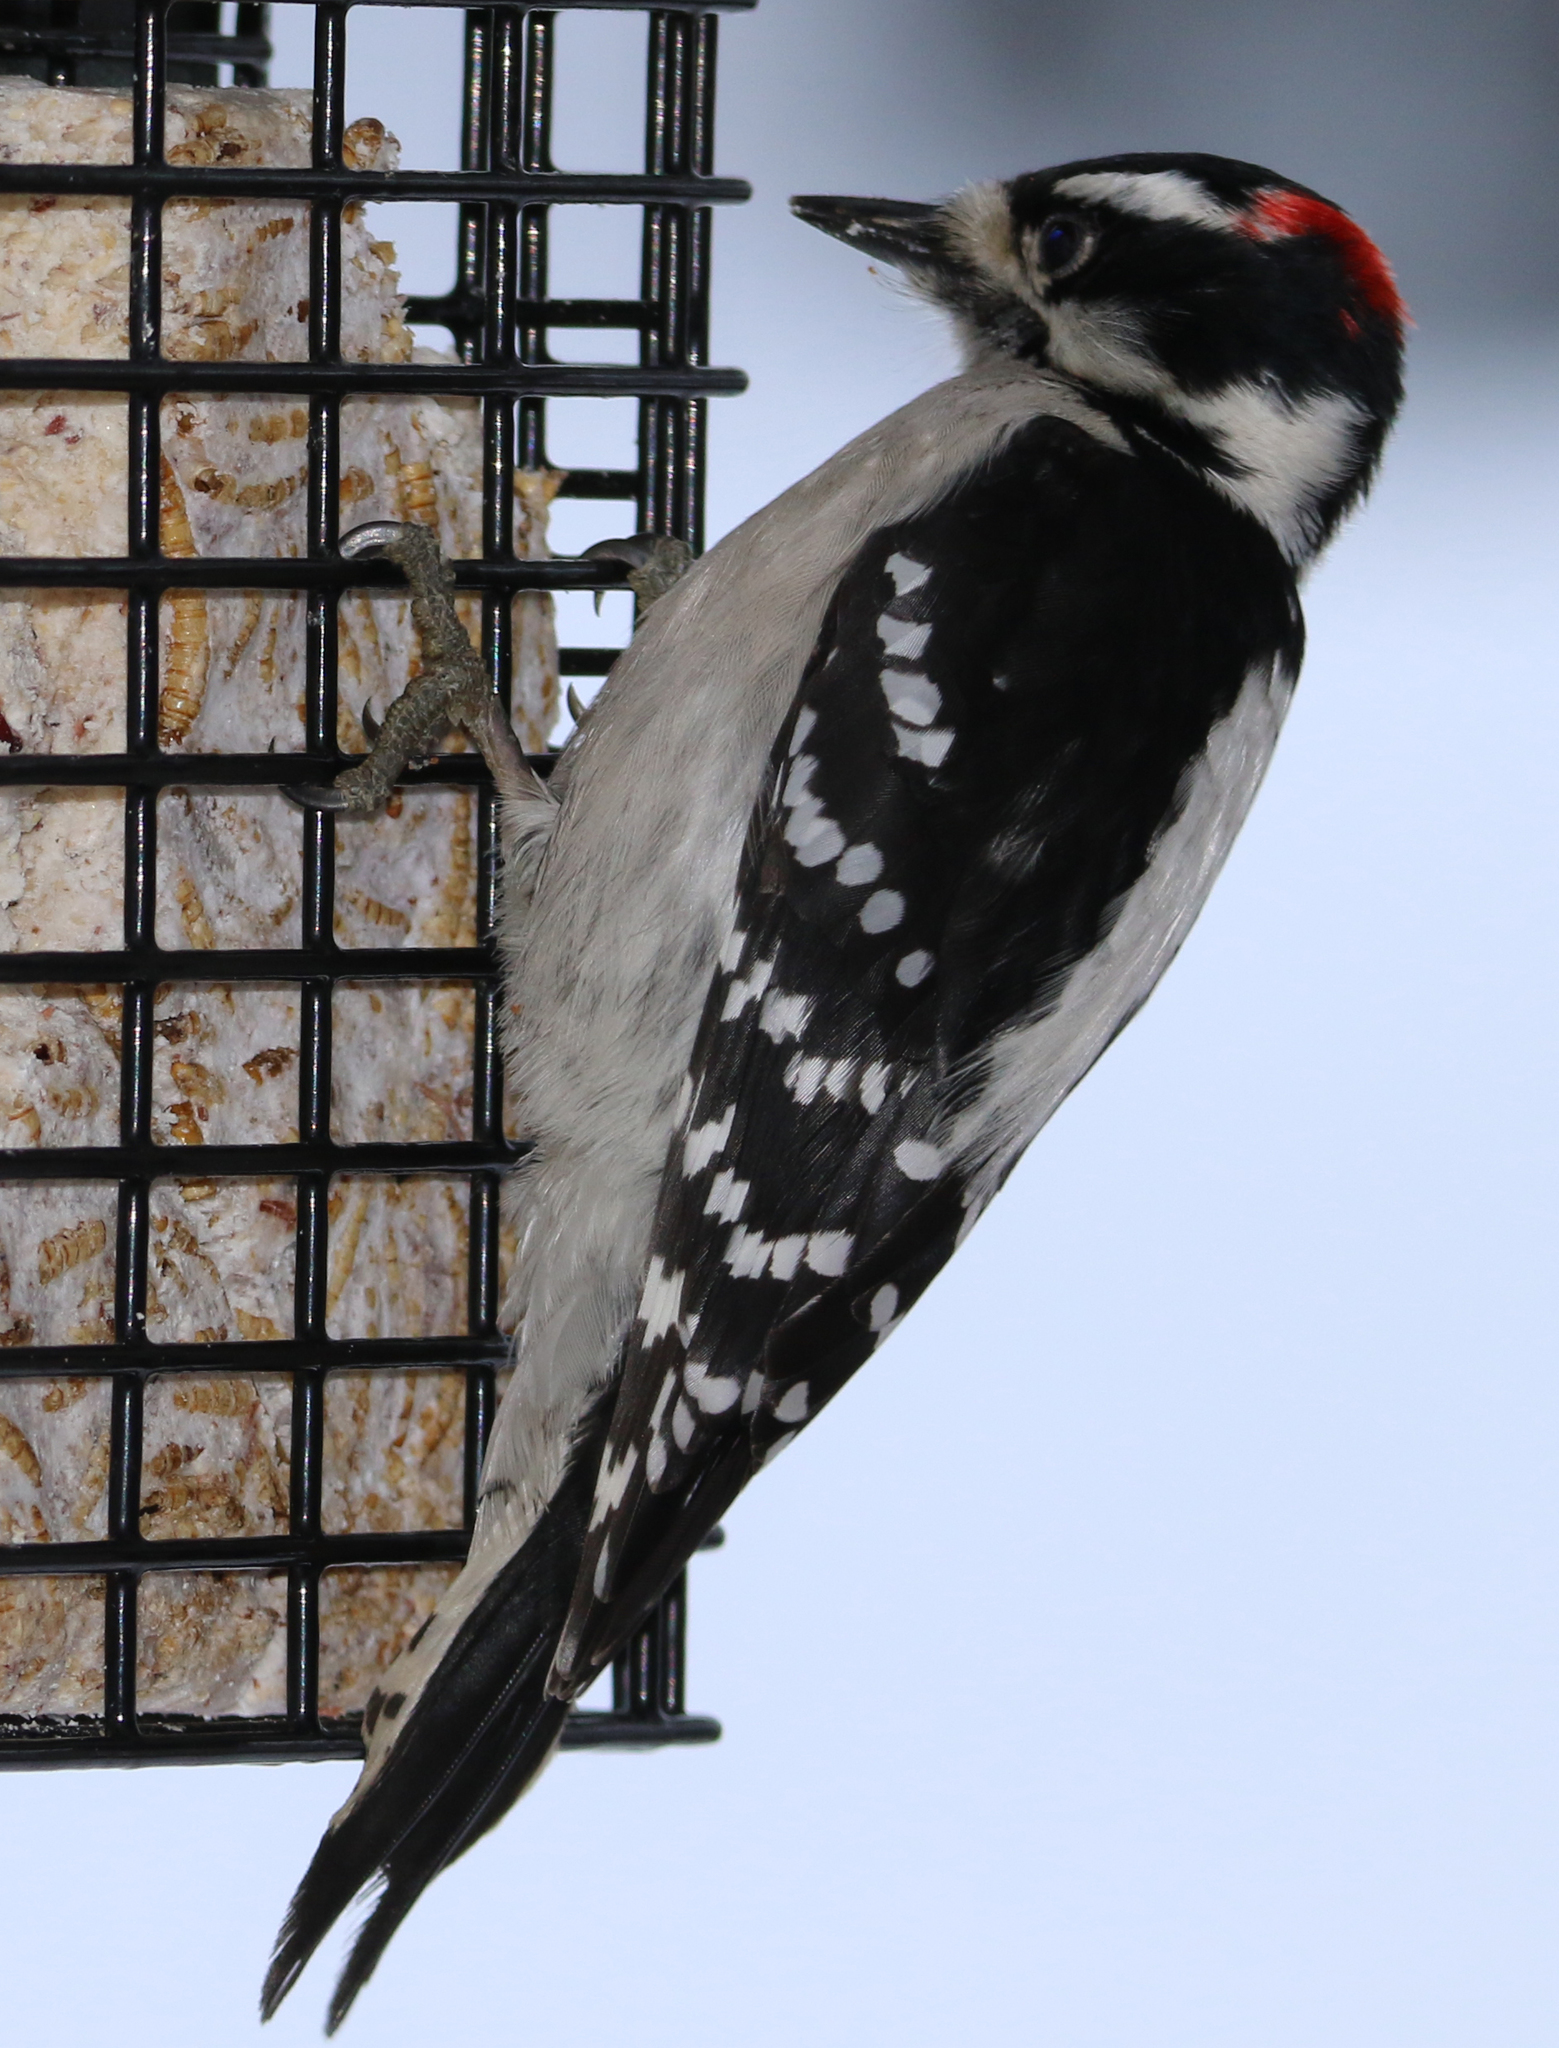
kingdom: Animalia
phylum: Chordata
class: Aves
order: Piciformes
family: Picidae
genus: Dryobates
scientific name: Dryobates pubescens
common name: Downy woodpecker
